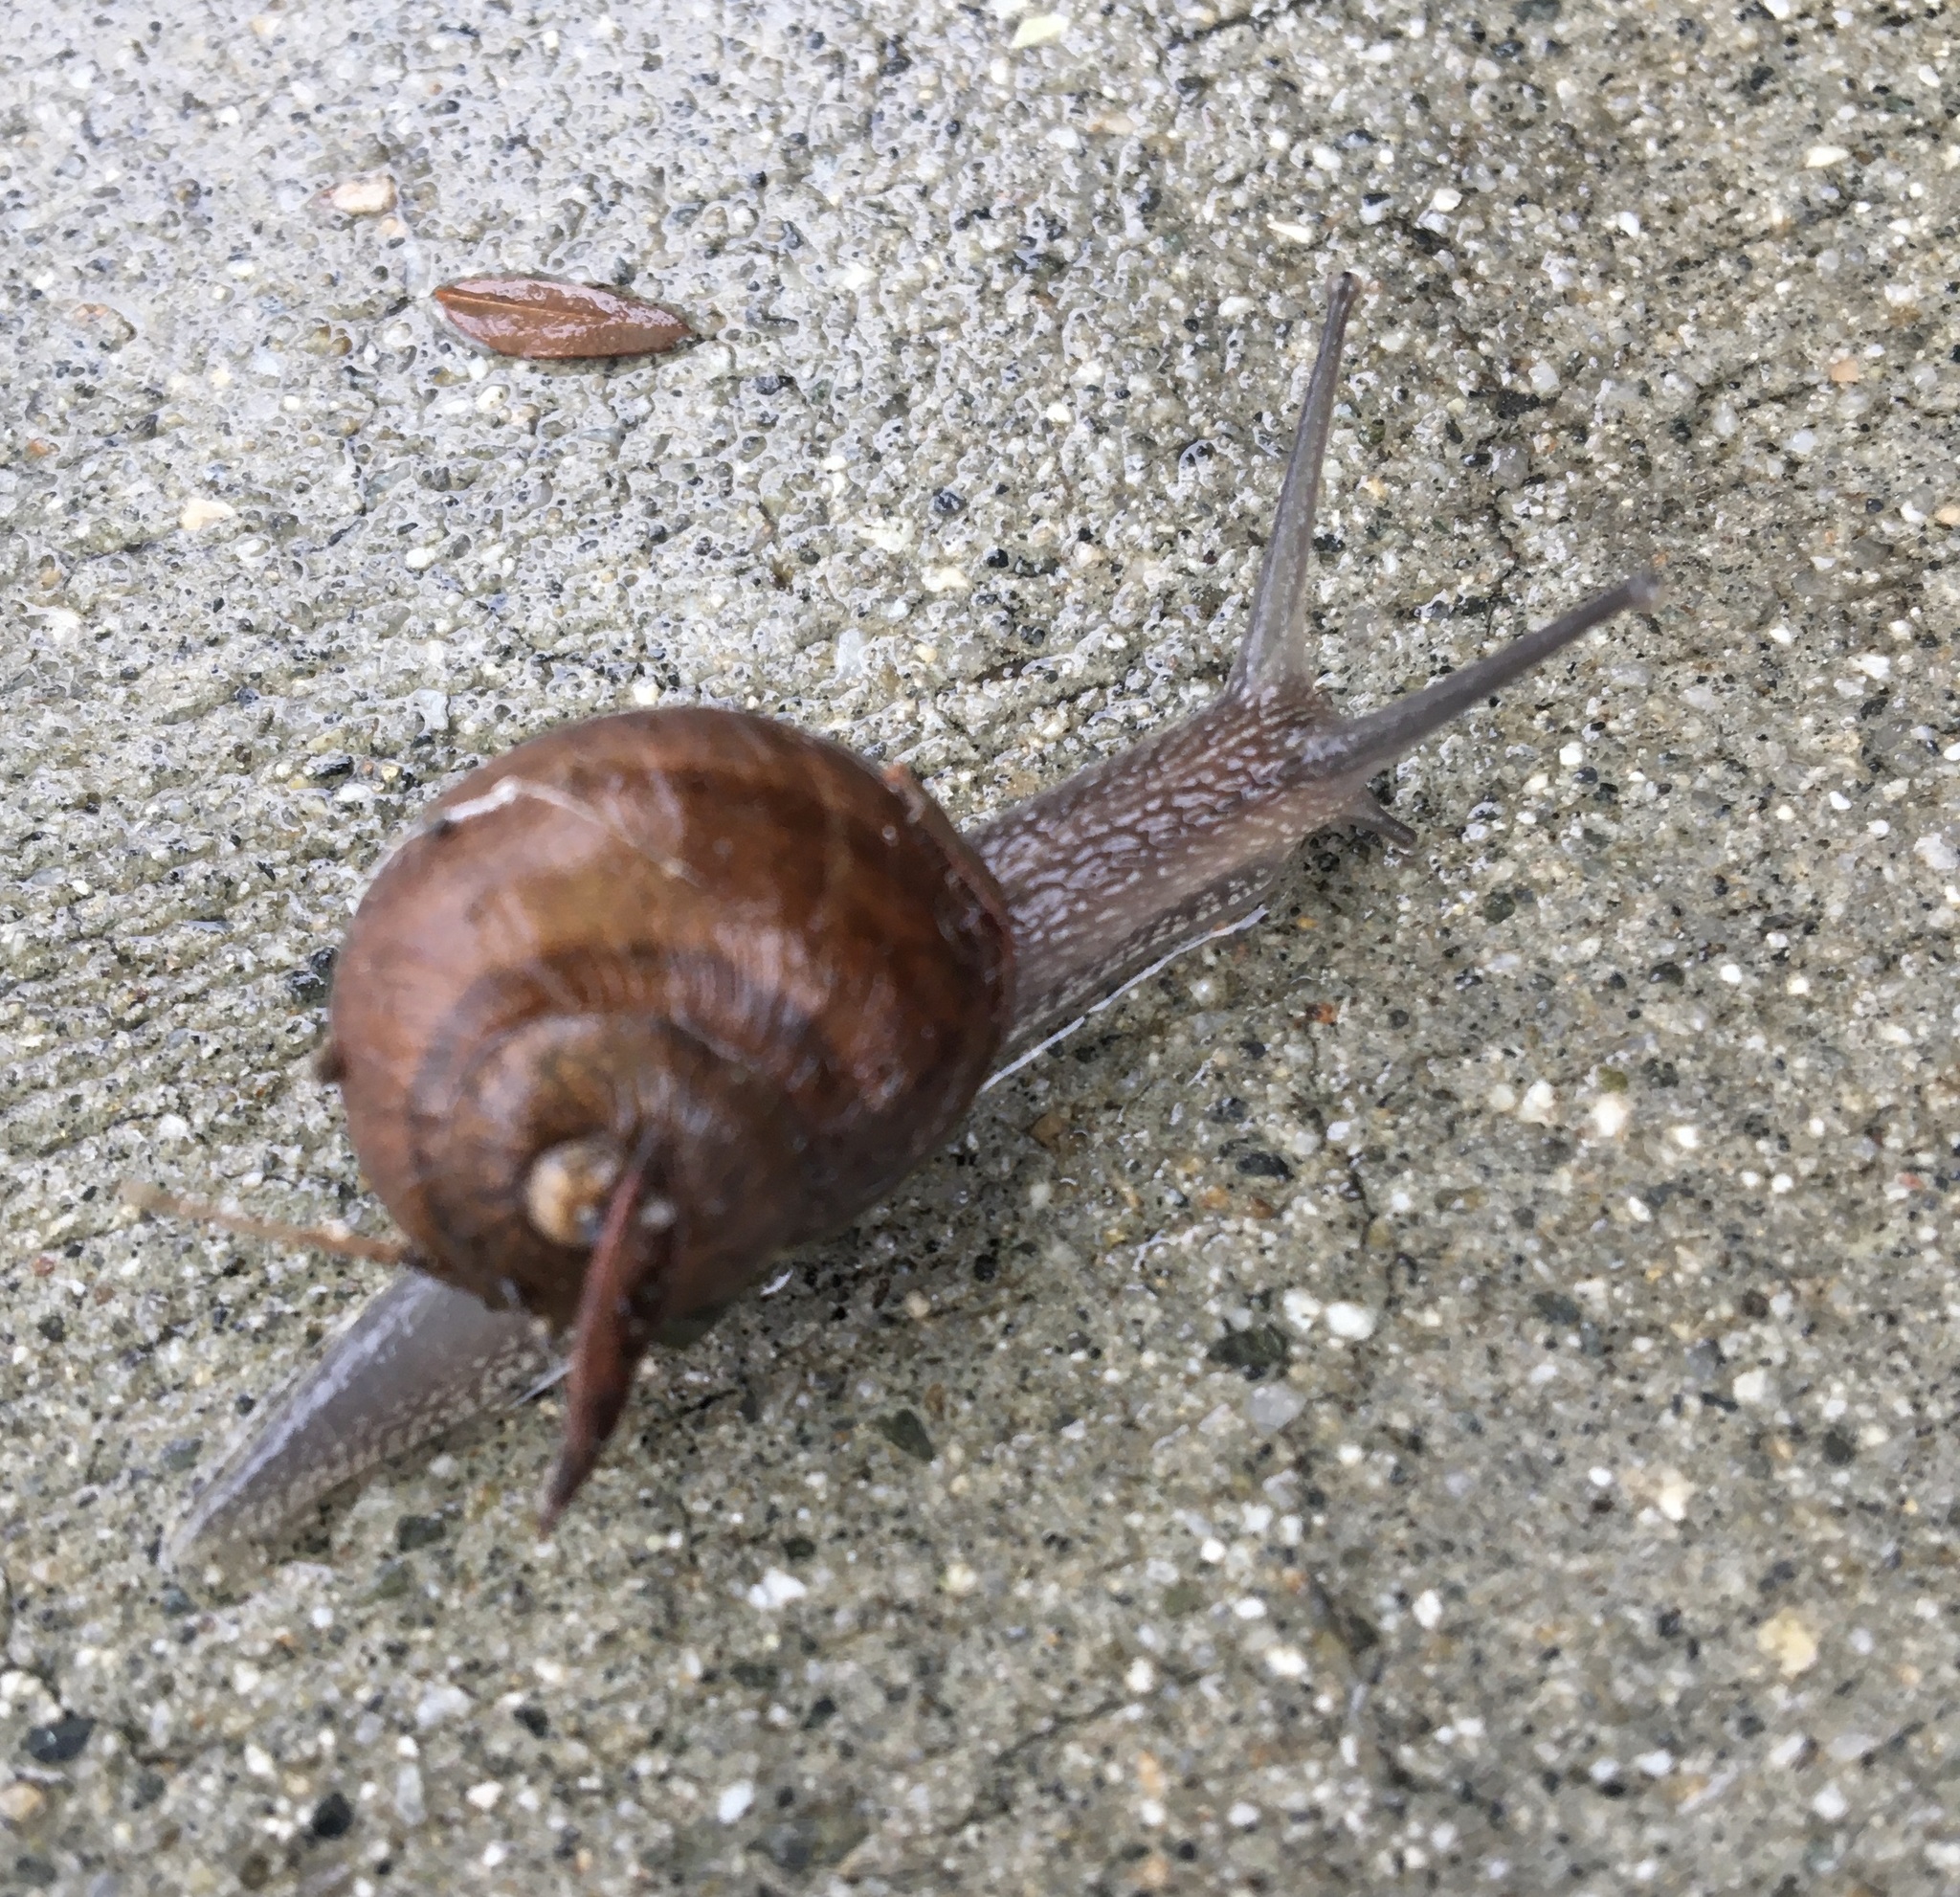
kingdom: Animalia
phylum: Mollusca
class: Gastropoda
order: Stylommatophora
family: Helicidae
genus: Cornu
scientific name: Cornu aspersum
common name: Brown garden snail
